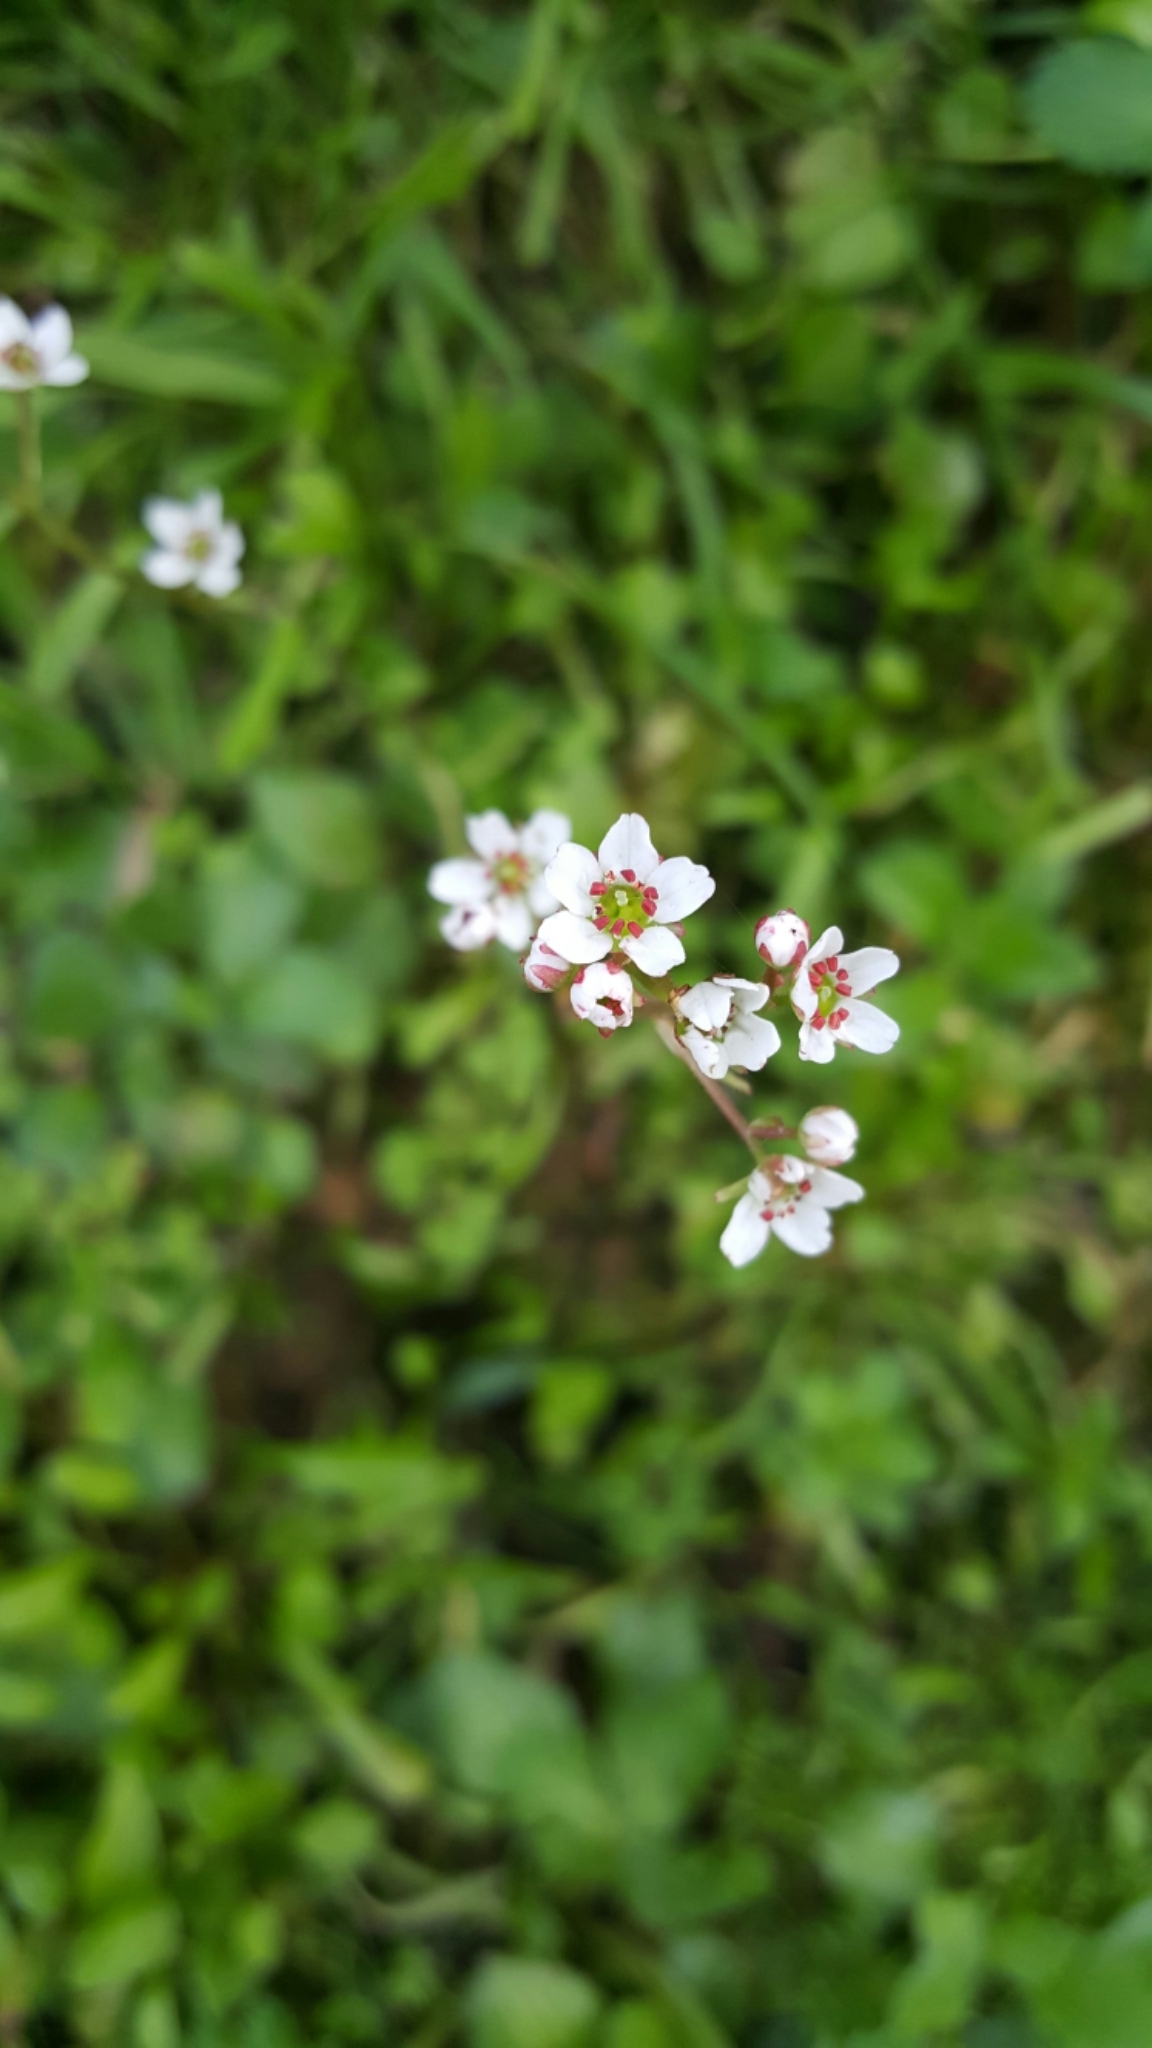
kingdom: Plantae
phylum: Tracheophyta
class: Magnoliopsida
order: Saxifragales
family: Saxifragaceae
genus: Micranthes
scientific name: Micranthes californica
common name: California saxifrage
